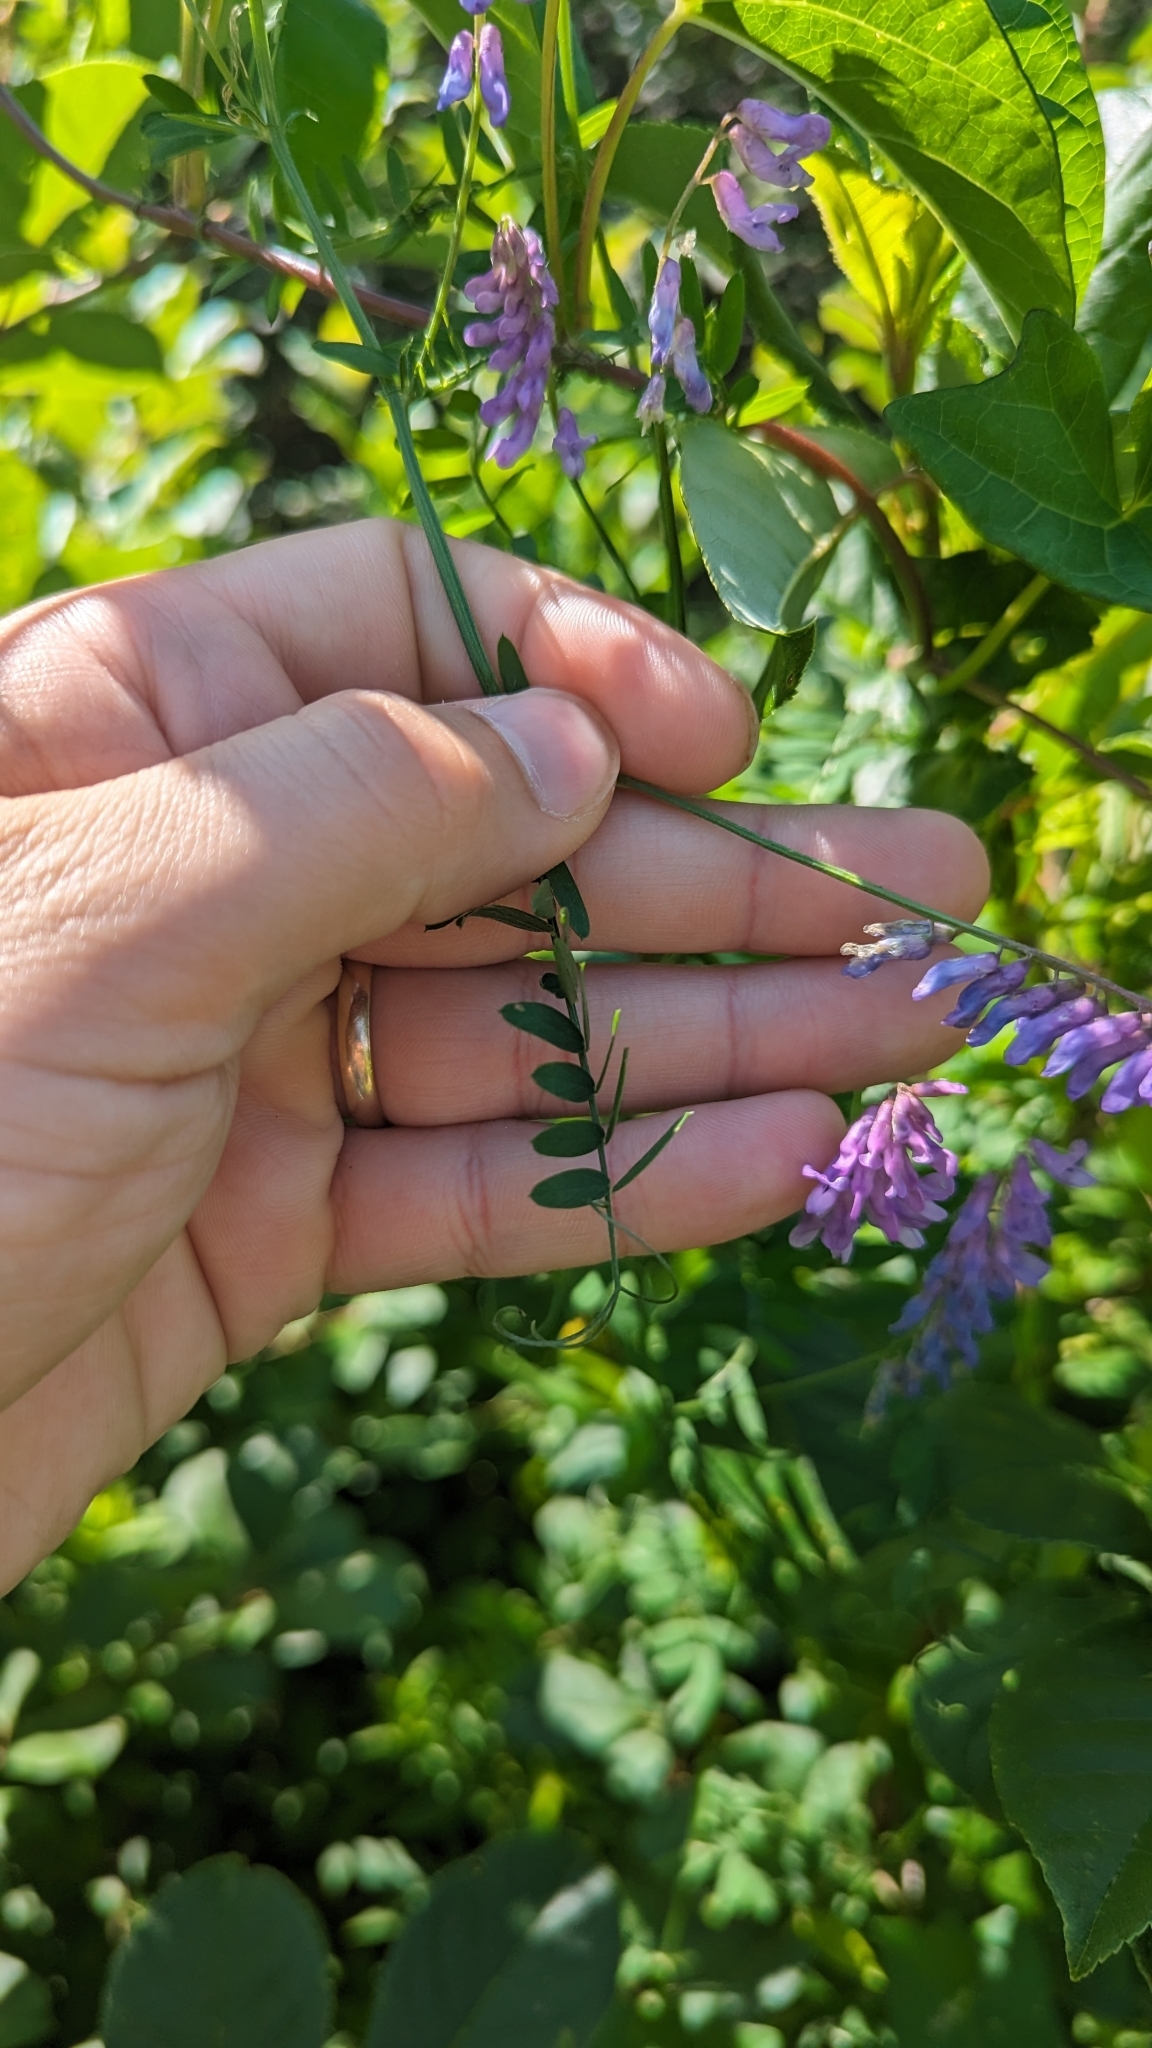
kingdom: Plantae
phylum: Tracheophyta
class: Magnoliopsida
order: Fabales
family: Fabaceae
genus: Vicia
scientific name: Vicia cracca
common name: Bird vetch
